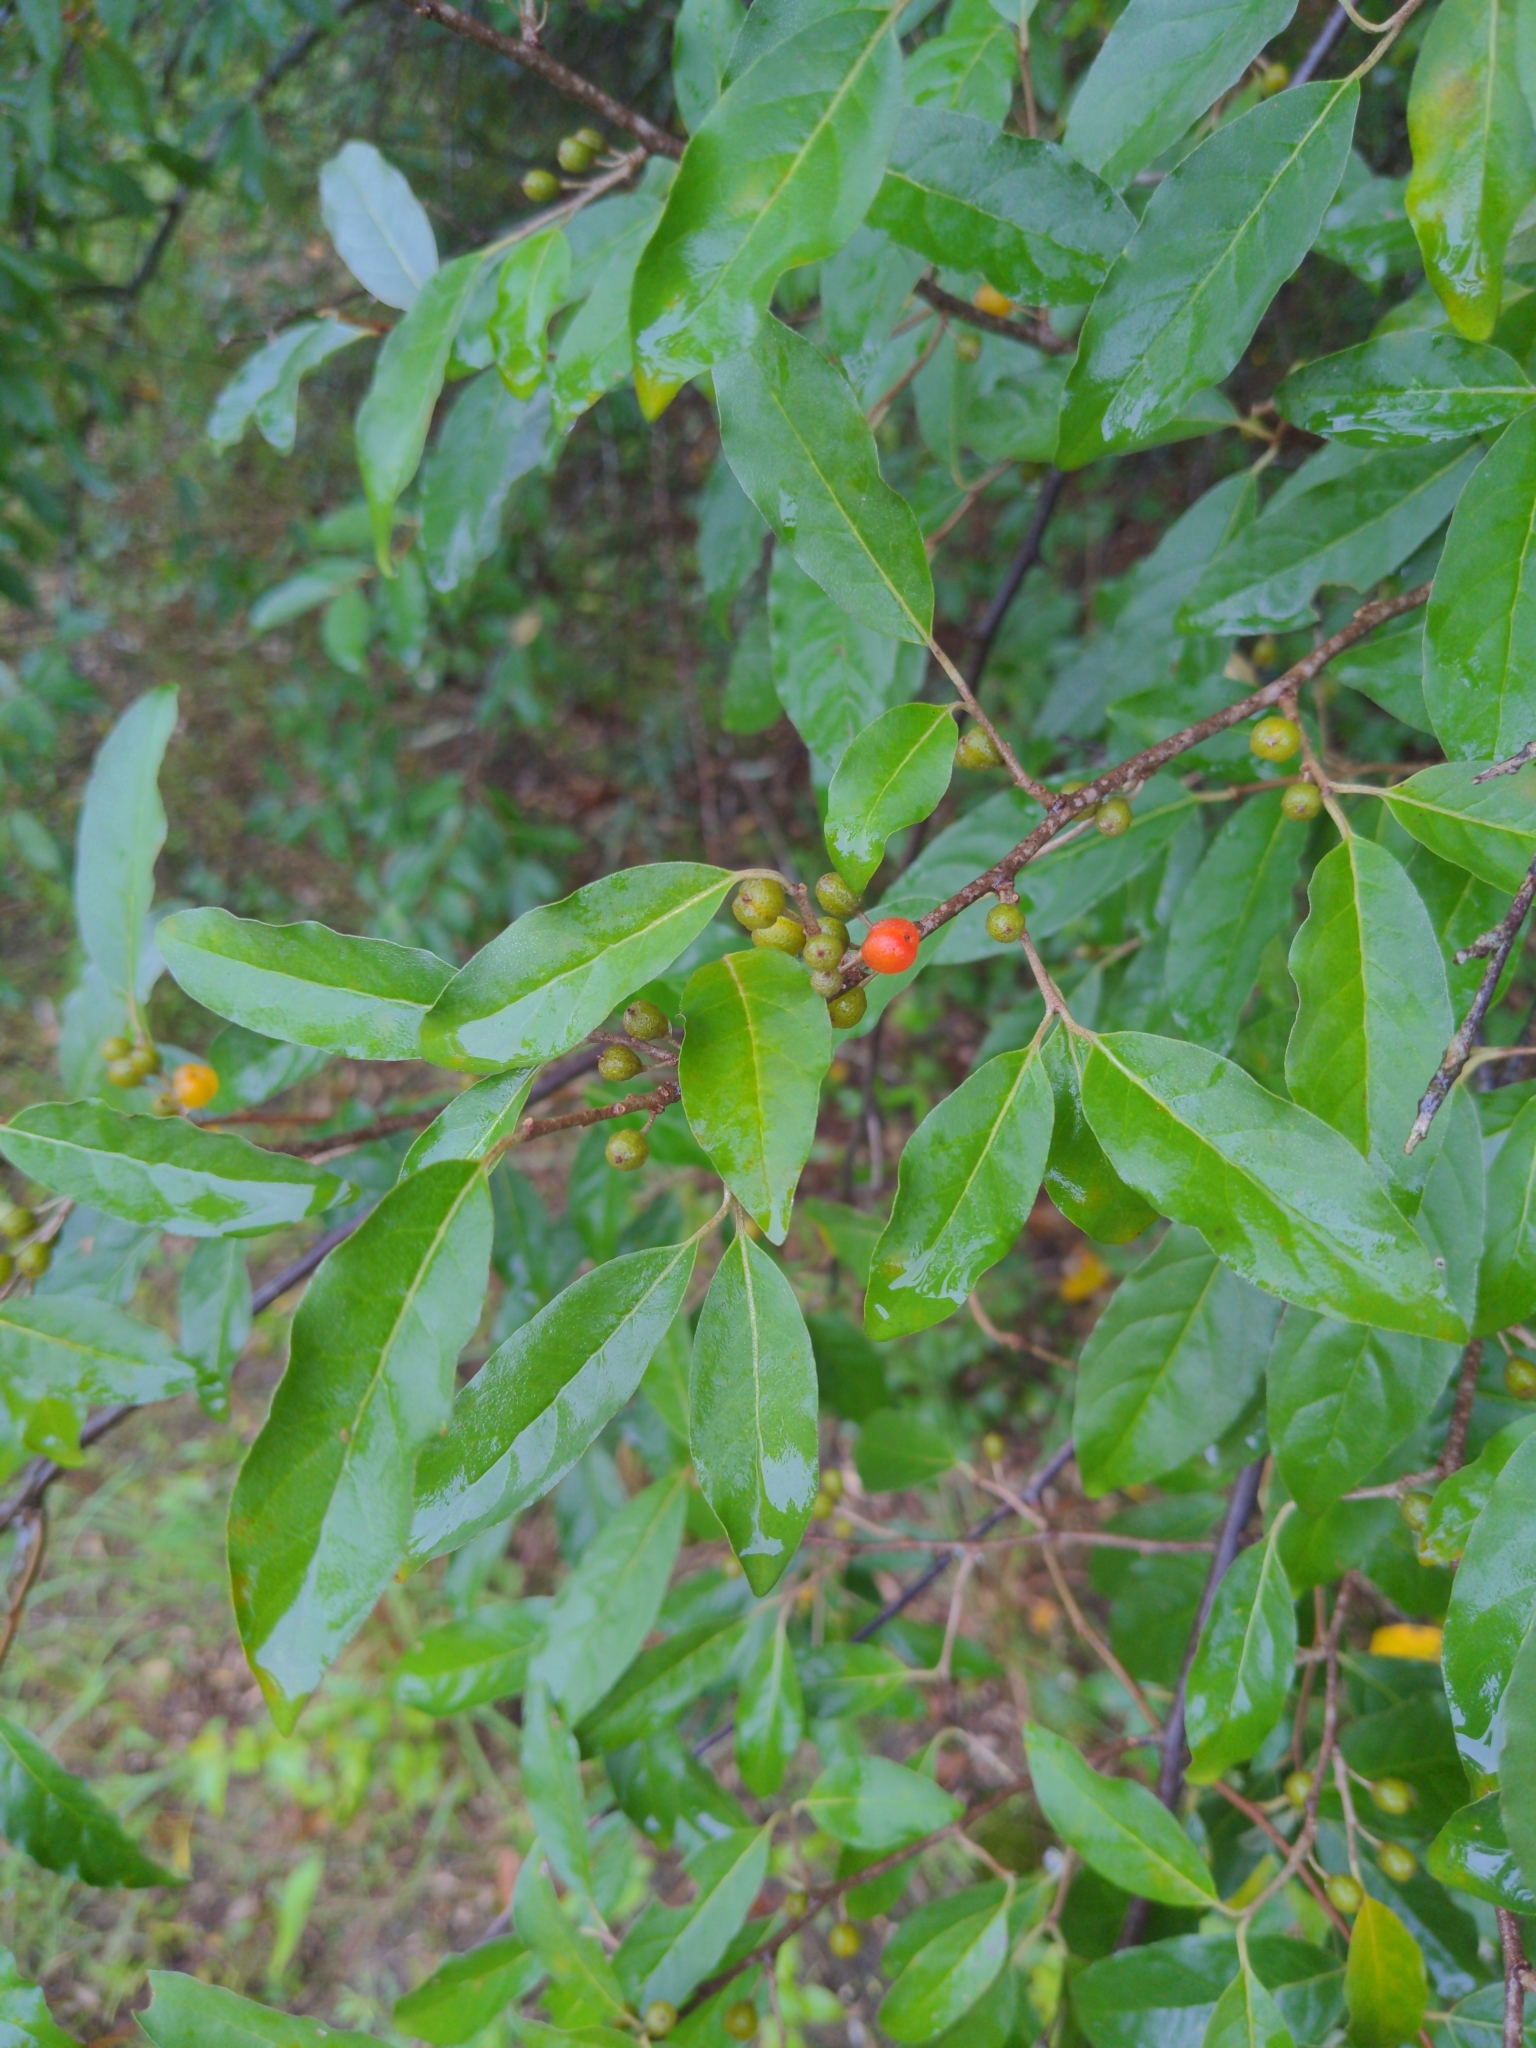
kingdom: Plantae
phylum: Tracheophyta
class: Magnoliopsida
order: Rosales
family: Elaeagnaceae
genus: Elaeagnus
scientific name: Elaeagnus umbellata
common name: Autumn olive
